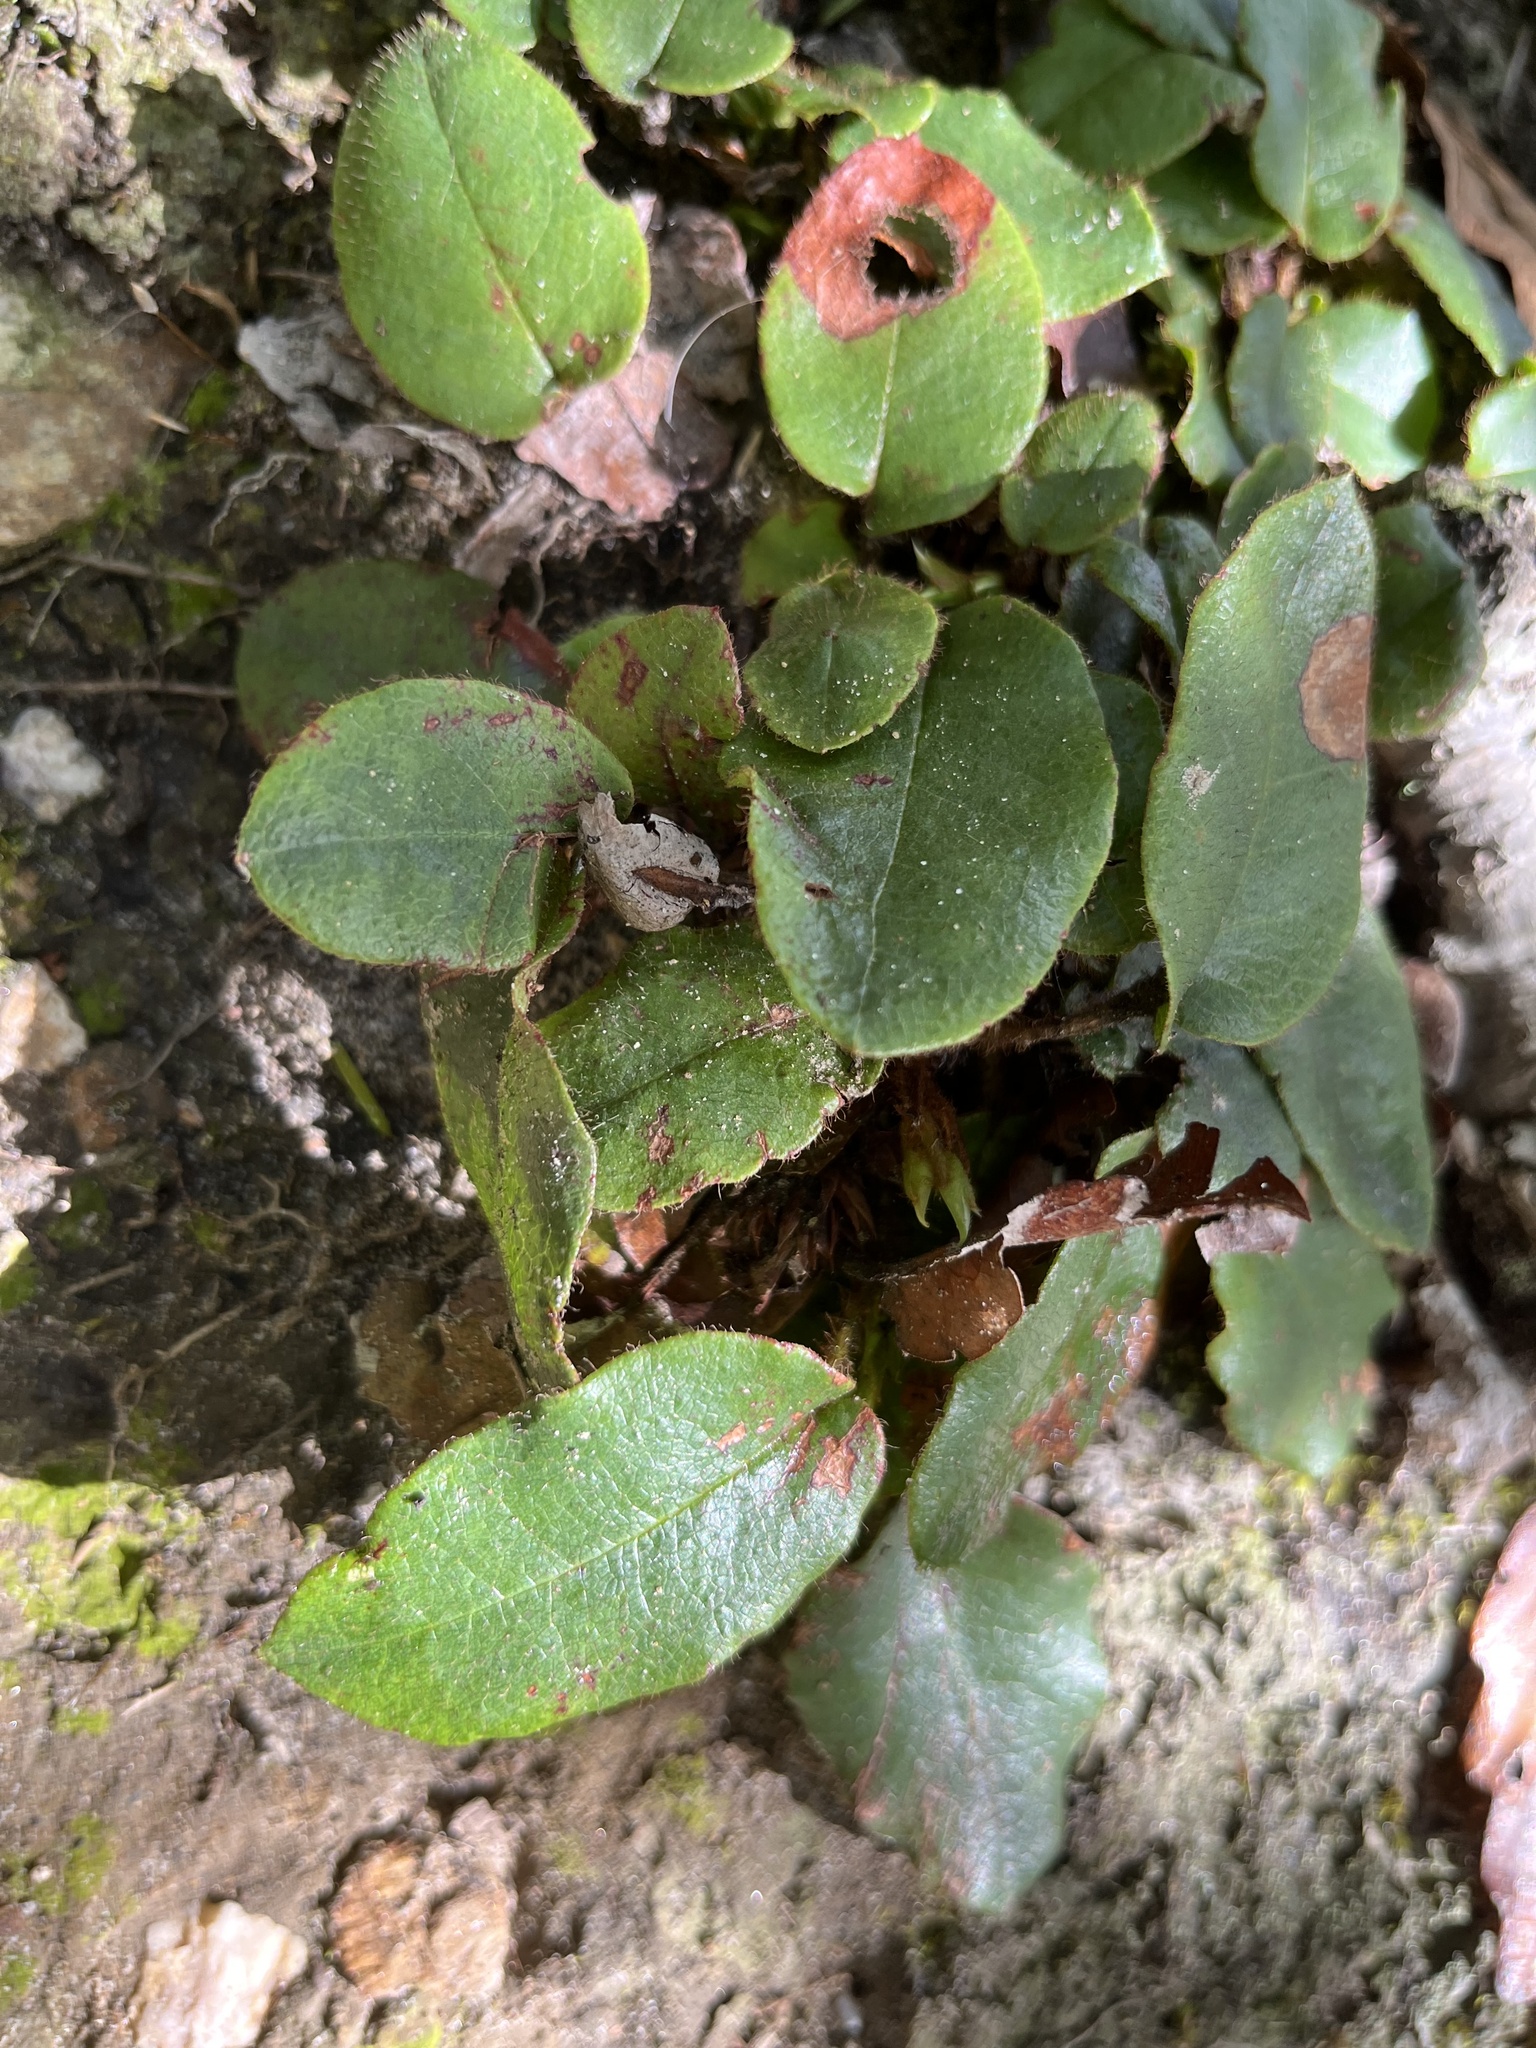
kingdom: Plantae
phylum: Tracheophyta
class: Magnoliopsida
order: Ericales
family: Ericaceae
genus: Epigaea
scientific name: Epigaea repens
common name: Gravelroot
